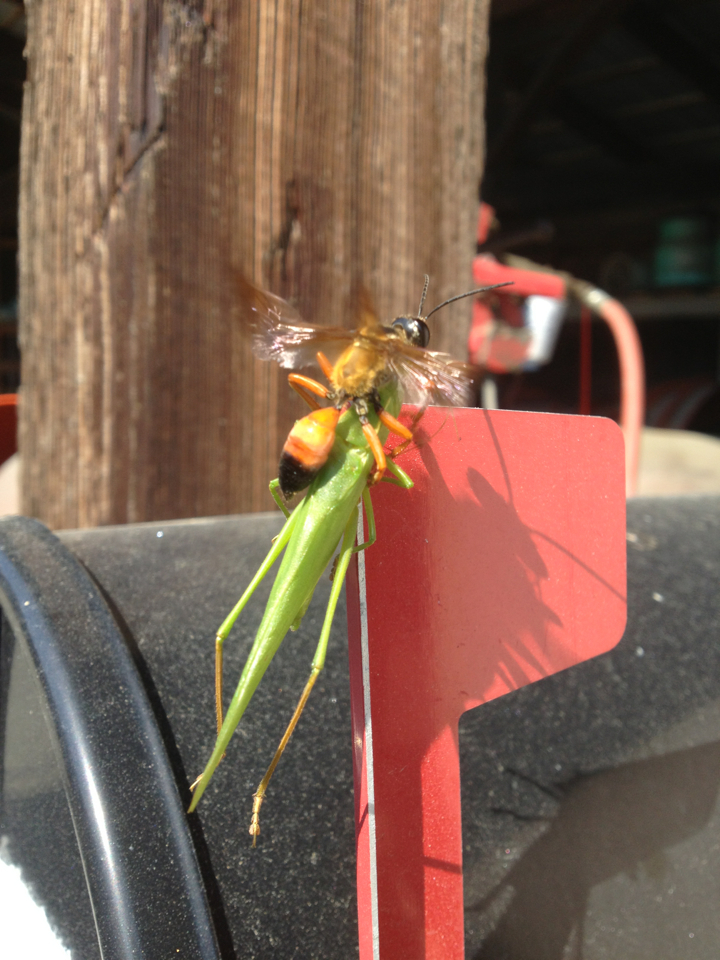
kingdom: Animalia
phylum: Arthropoda
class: Insecta
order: Hymenoptera
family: Sphecidae
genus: Sphex
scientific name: Sphex ichneumoneus
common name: Great golden digger wasp
